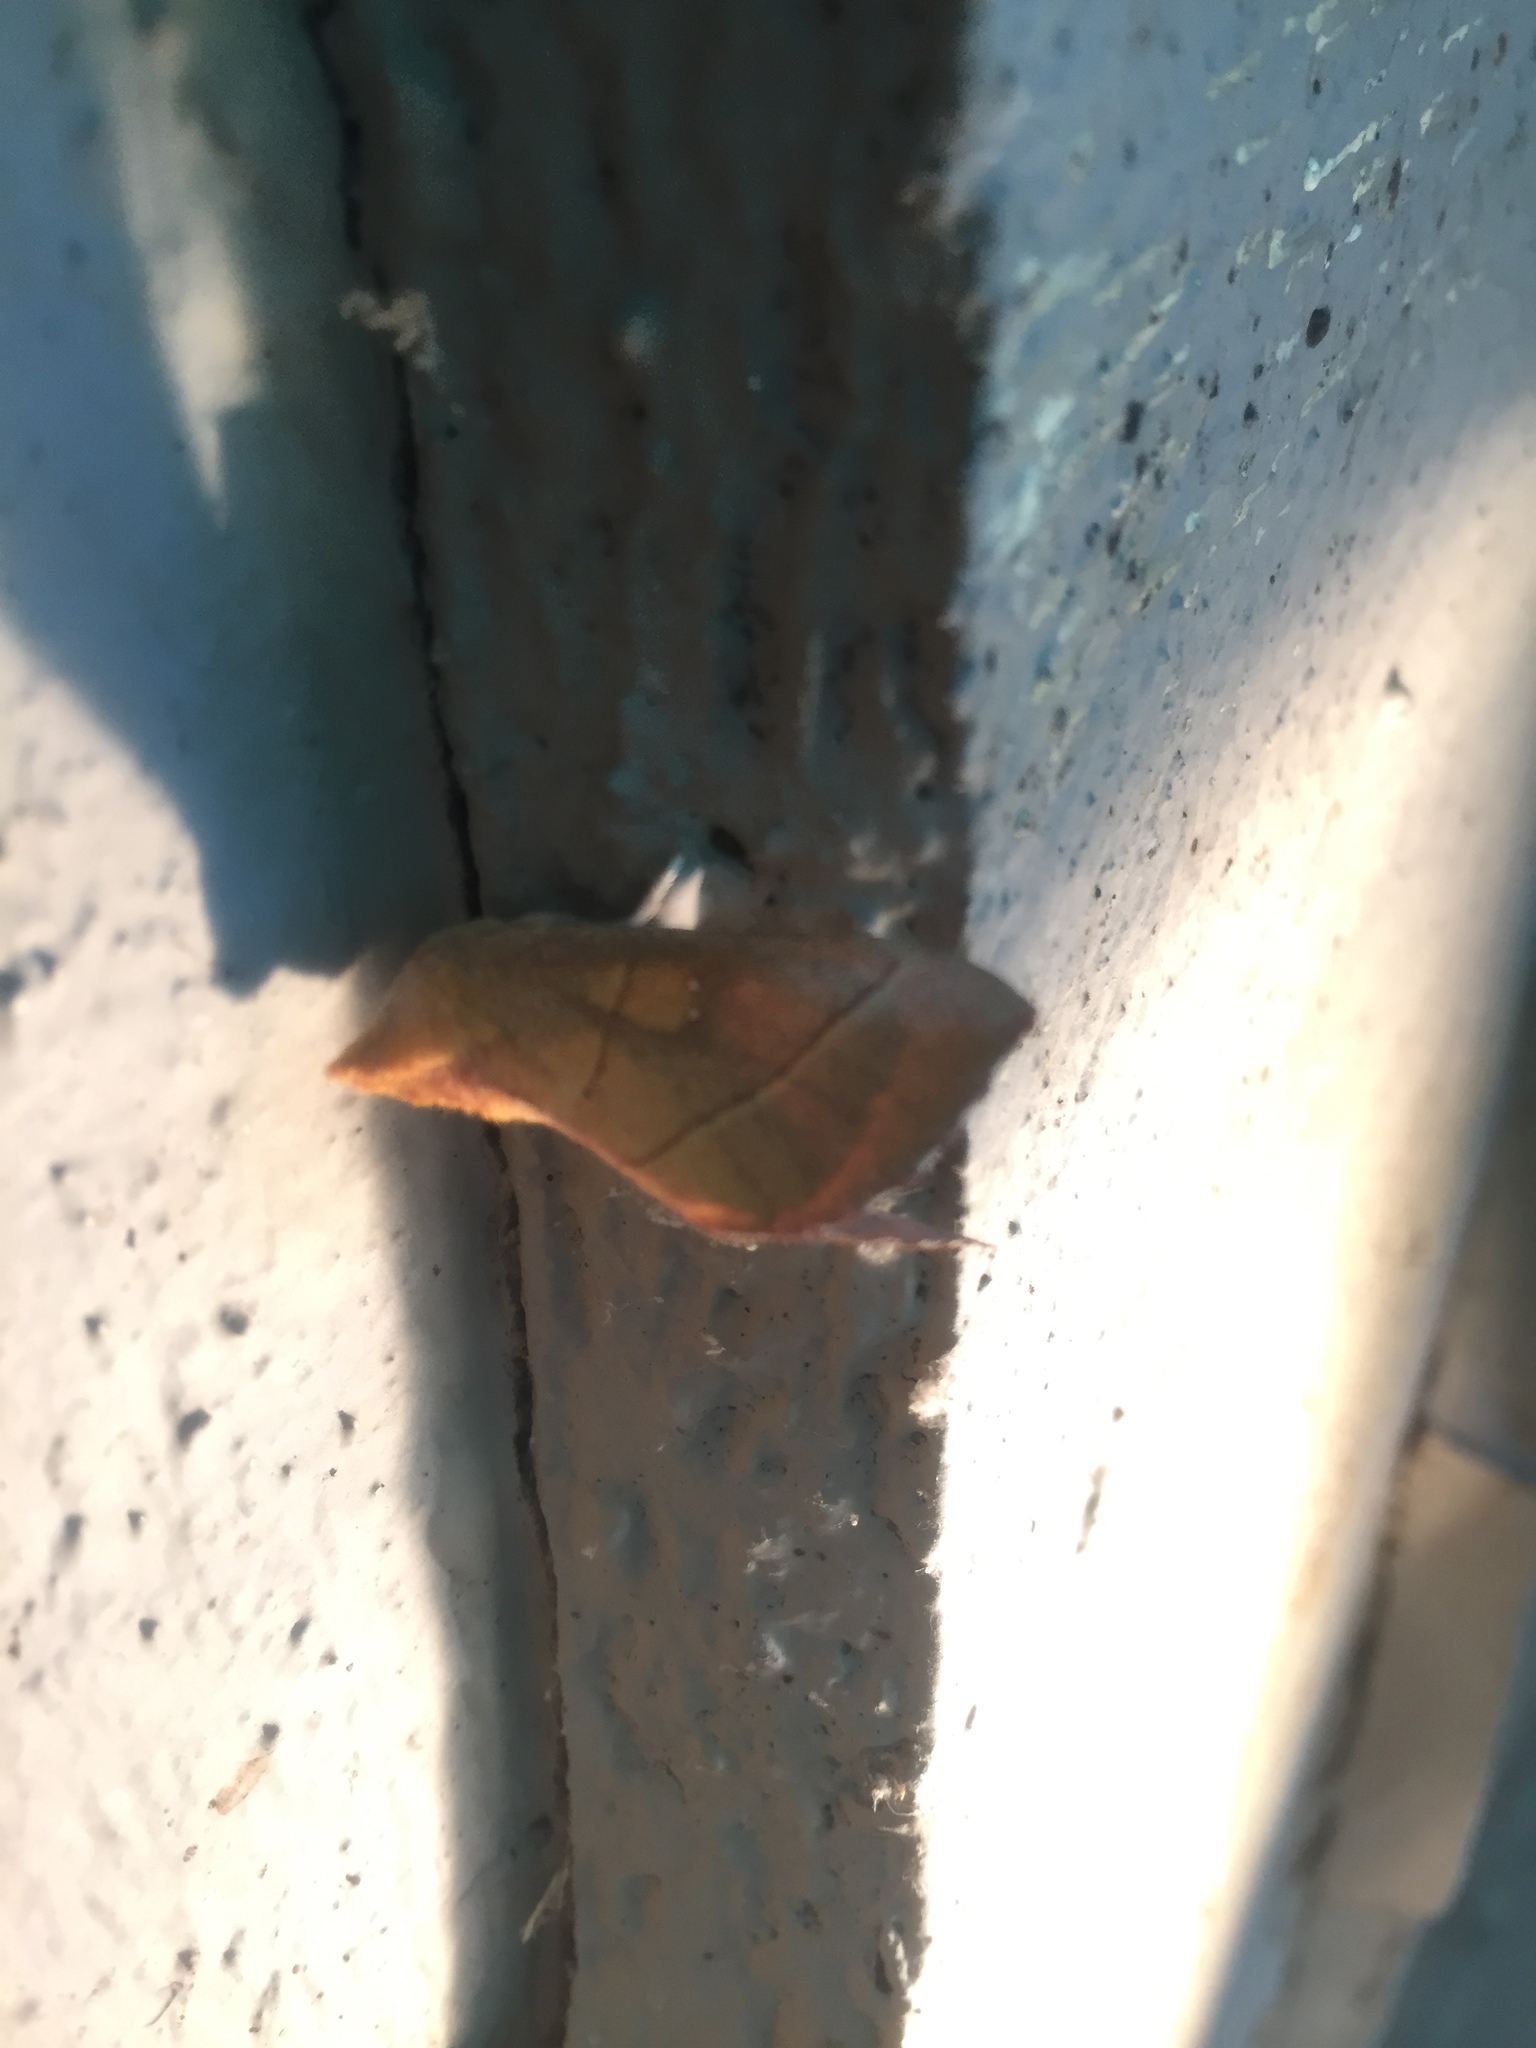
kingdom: Animalia
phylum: Arthropoda
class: Insecta
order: Lepidoptera
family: Notodontidae
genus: Nadata
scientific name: Nadata gibbosa
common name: White-dotted prominent
